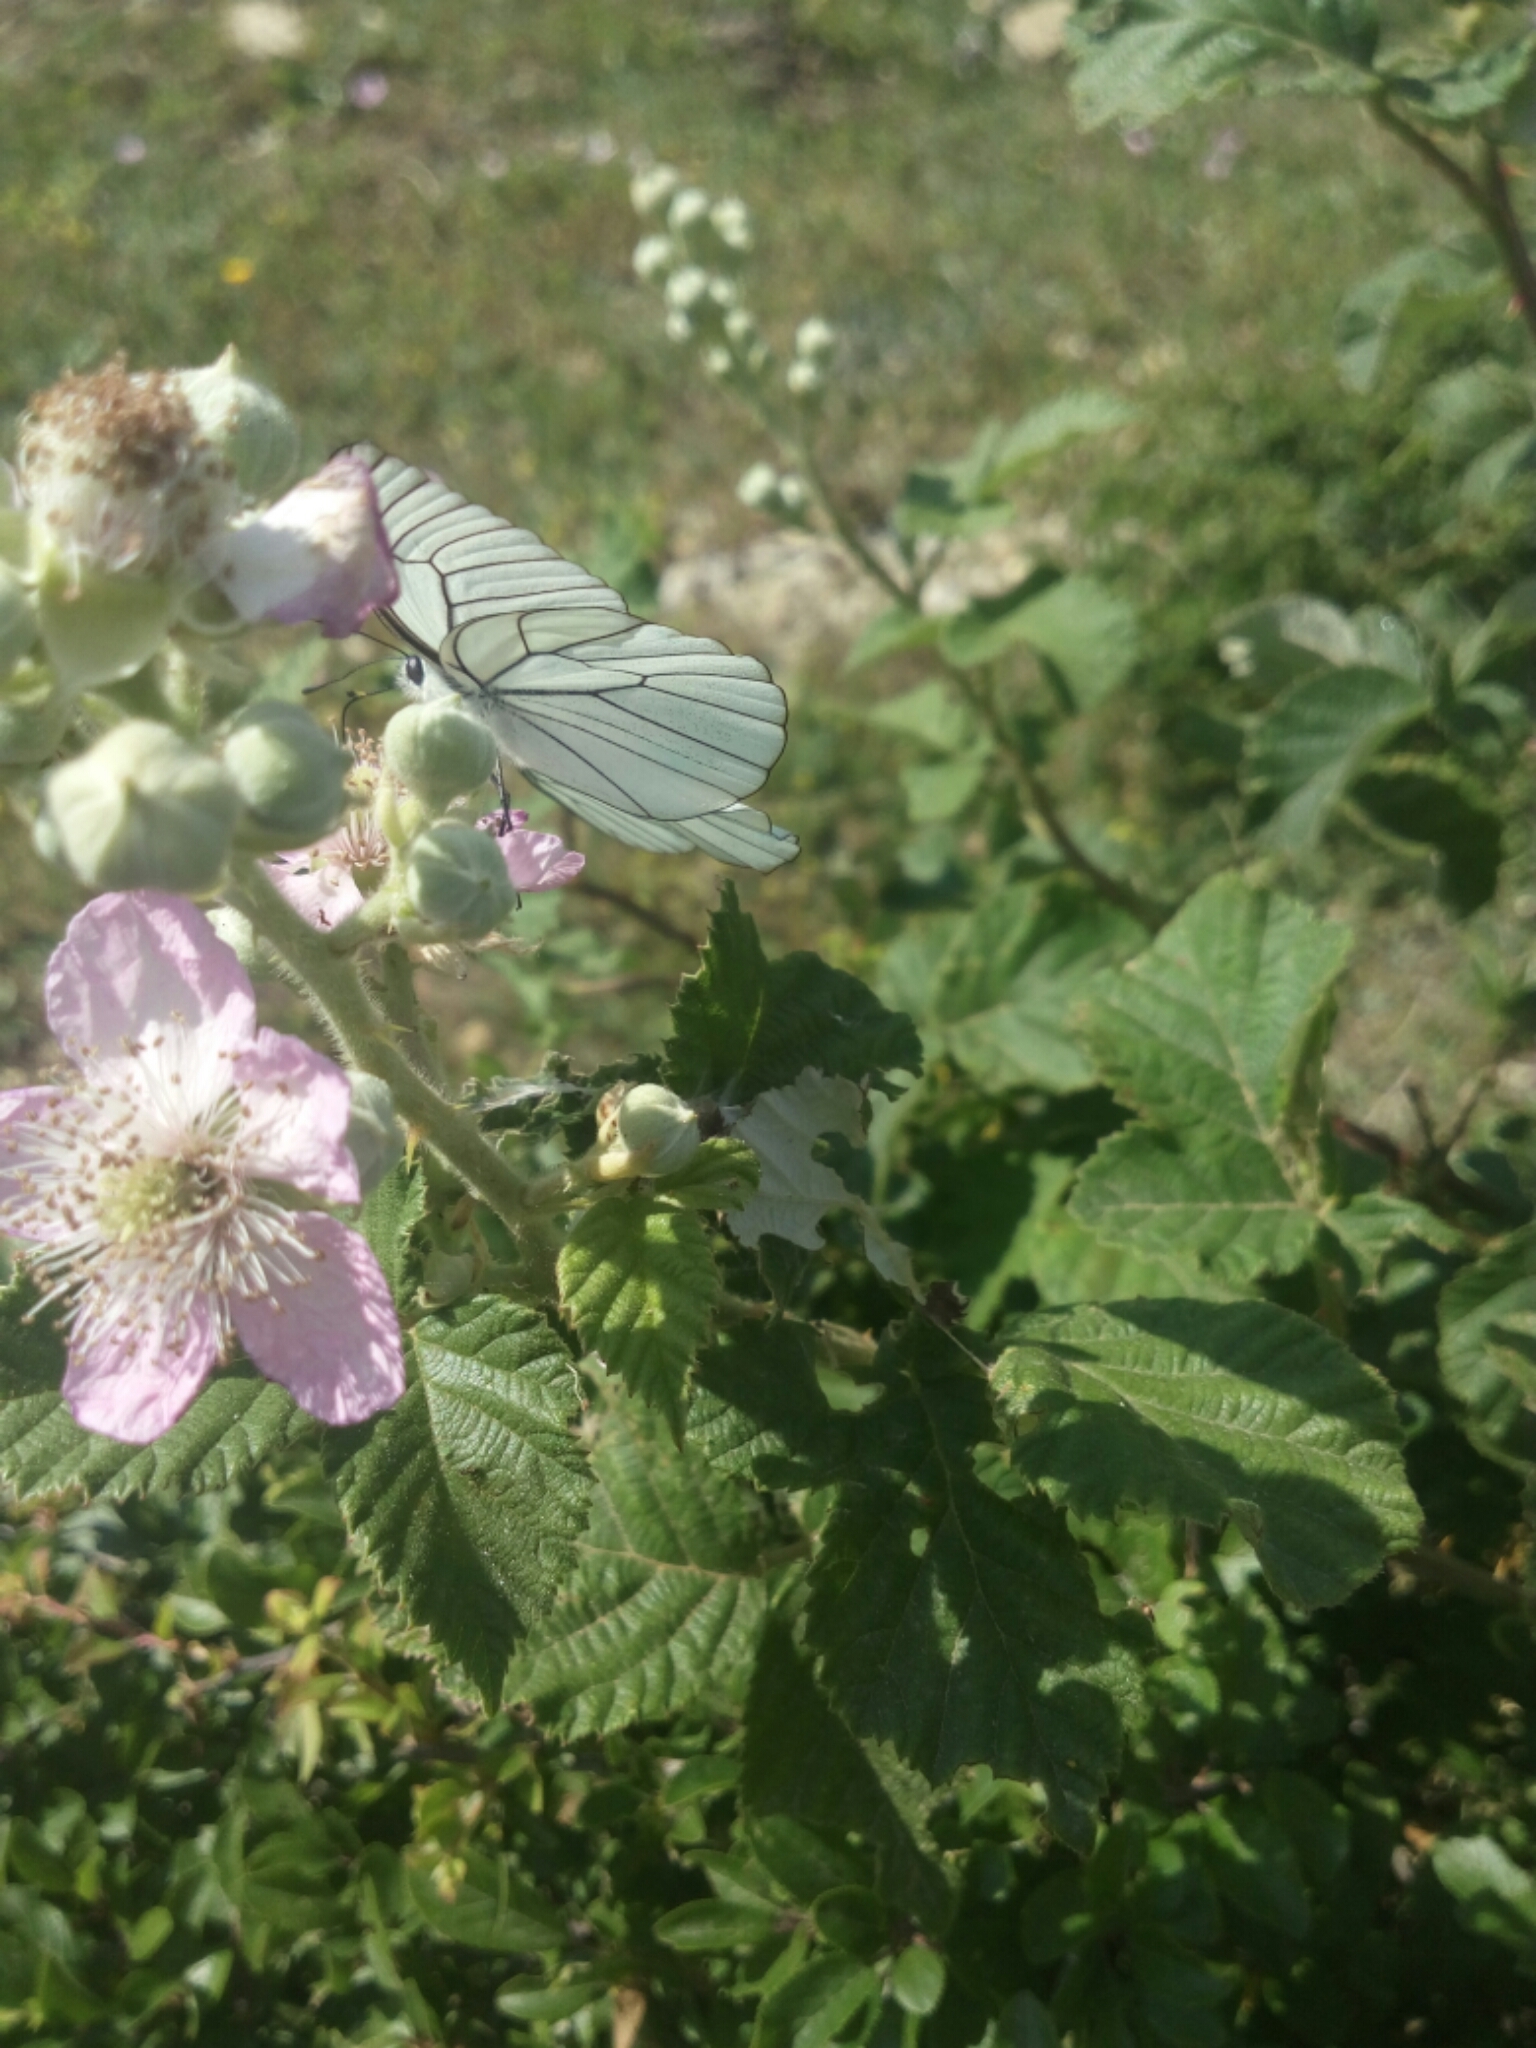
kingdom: Animalia
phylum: Arthropoda
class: Insecta
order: Lepidoptera
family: Pieridae
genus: Aporia
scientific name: Aporia crataegi
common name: Black-veined white
